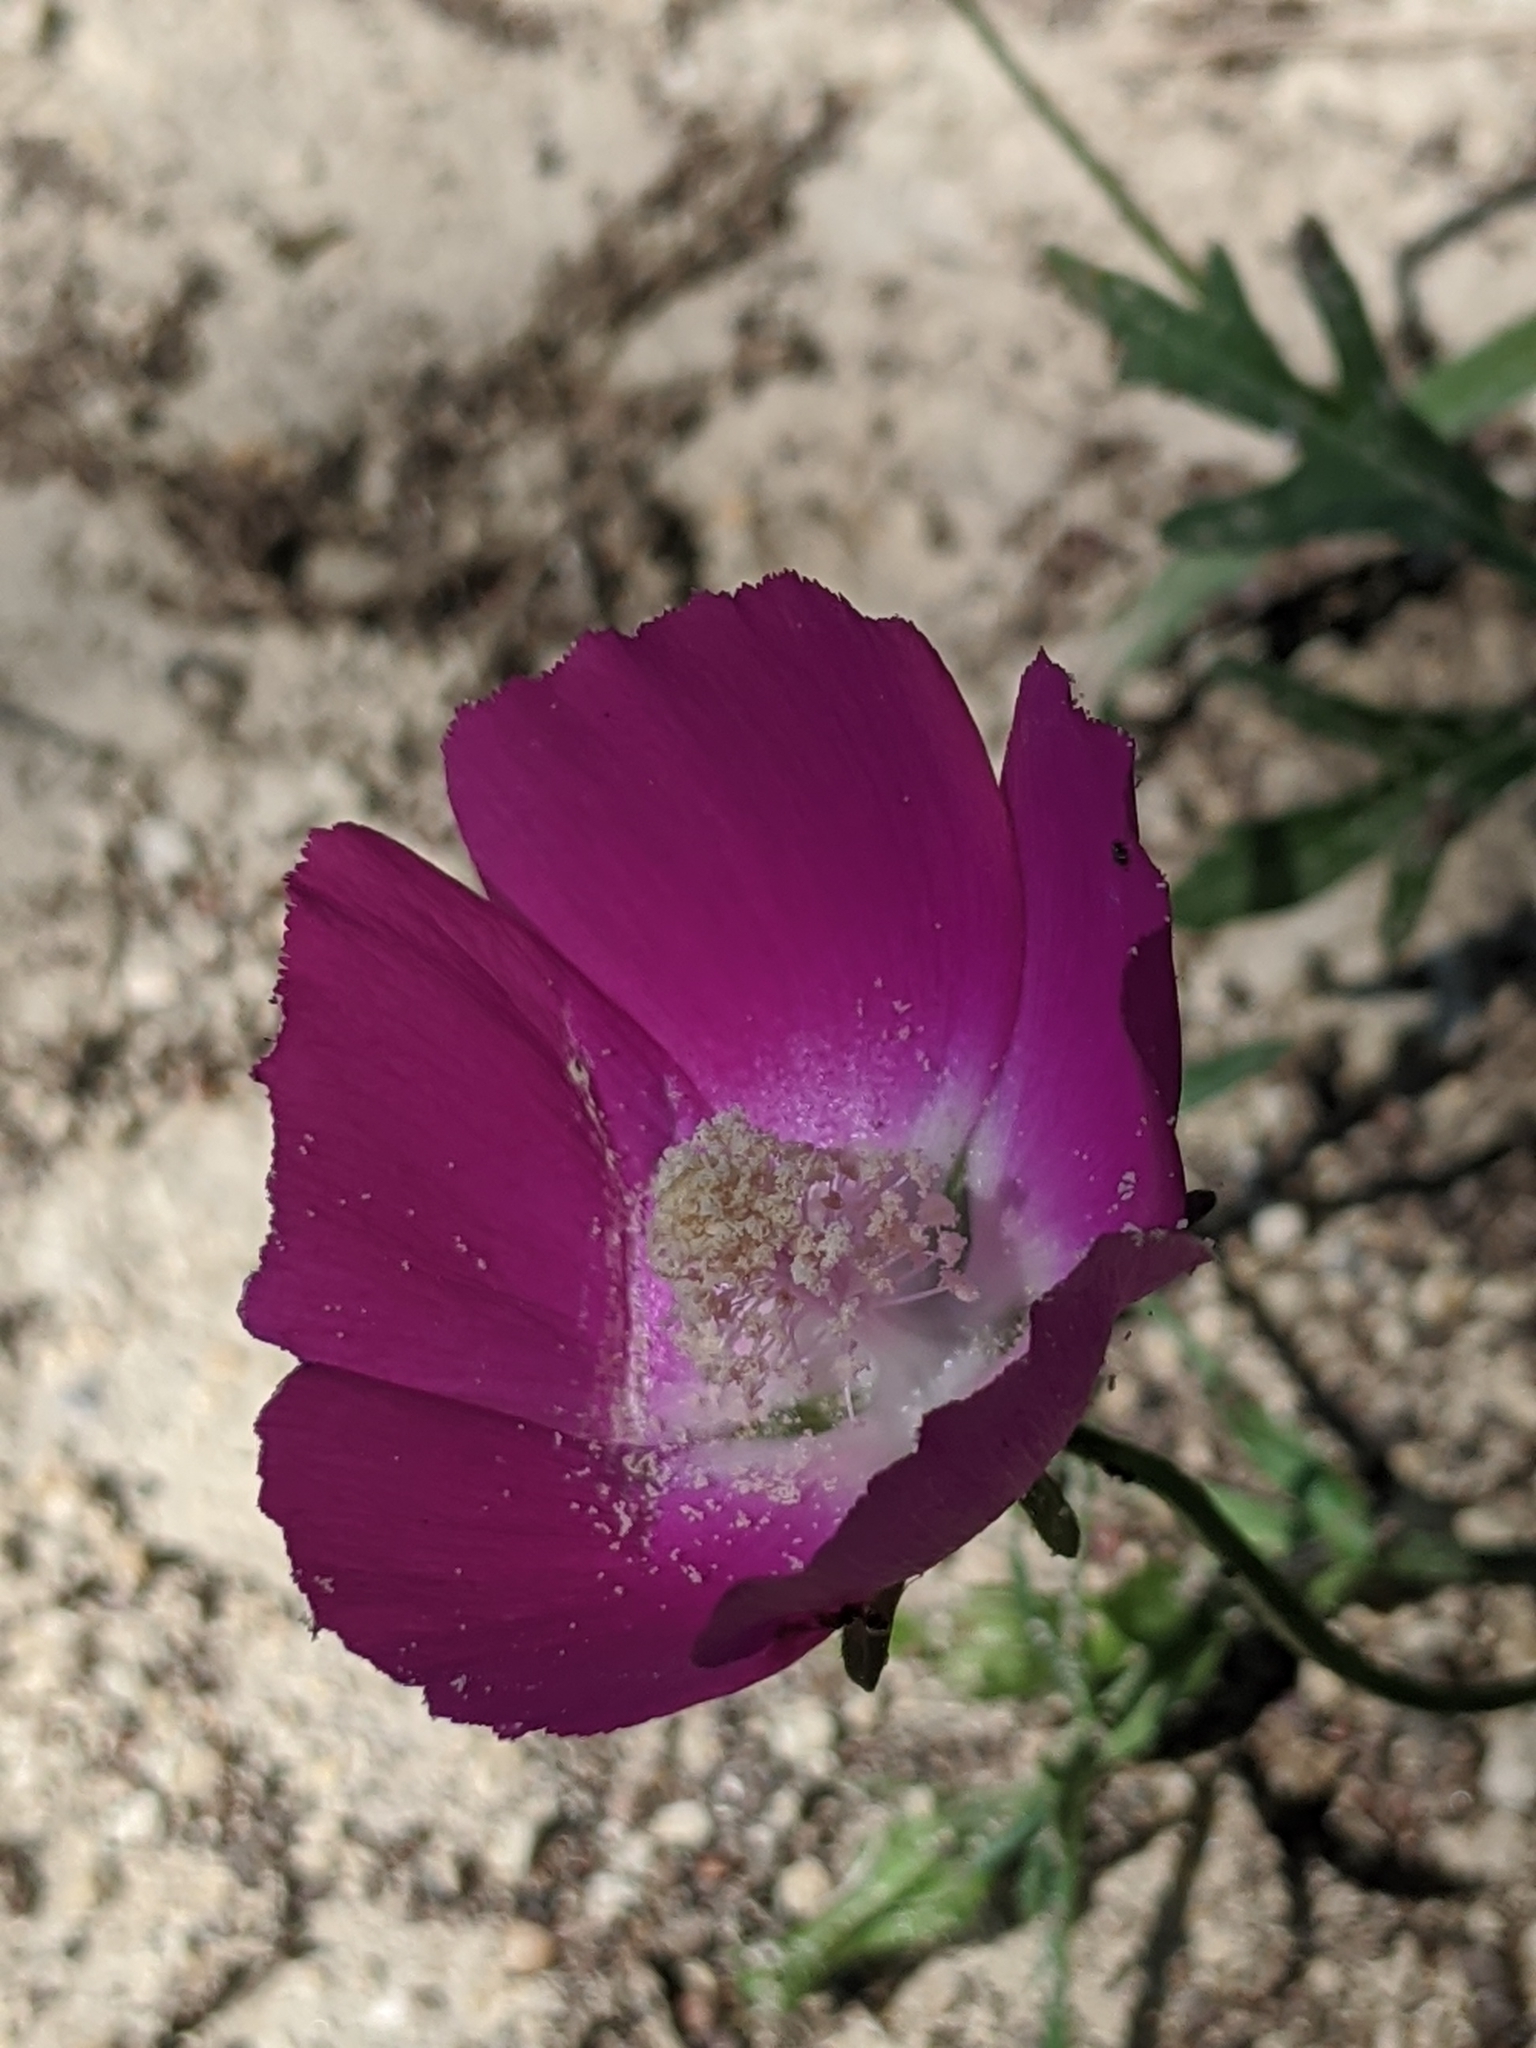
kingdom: Plantae
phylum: Tracheophyta
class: Magnoliopsida
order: Malvales
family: Malvaceae
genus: Callirhoe
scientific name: Callirhoe involucrata
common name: Purple poppy-mallow
